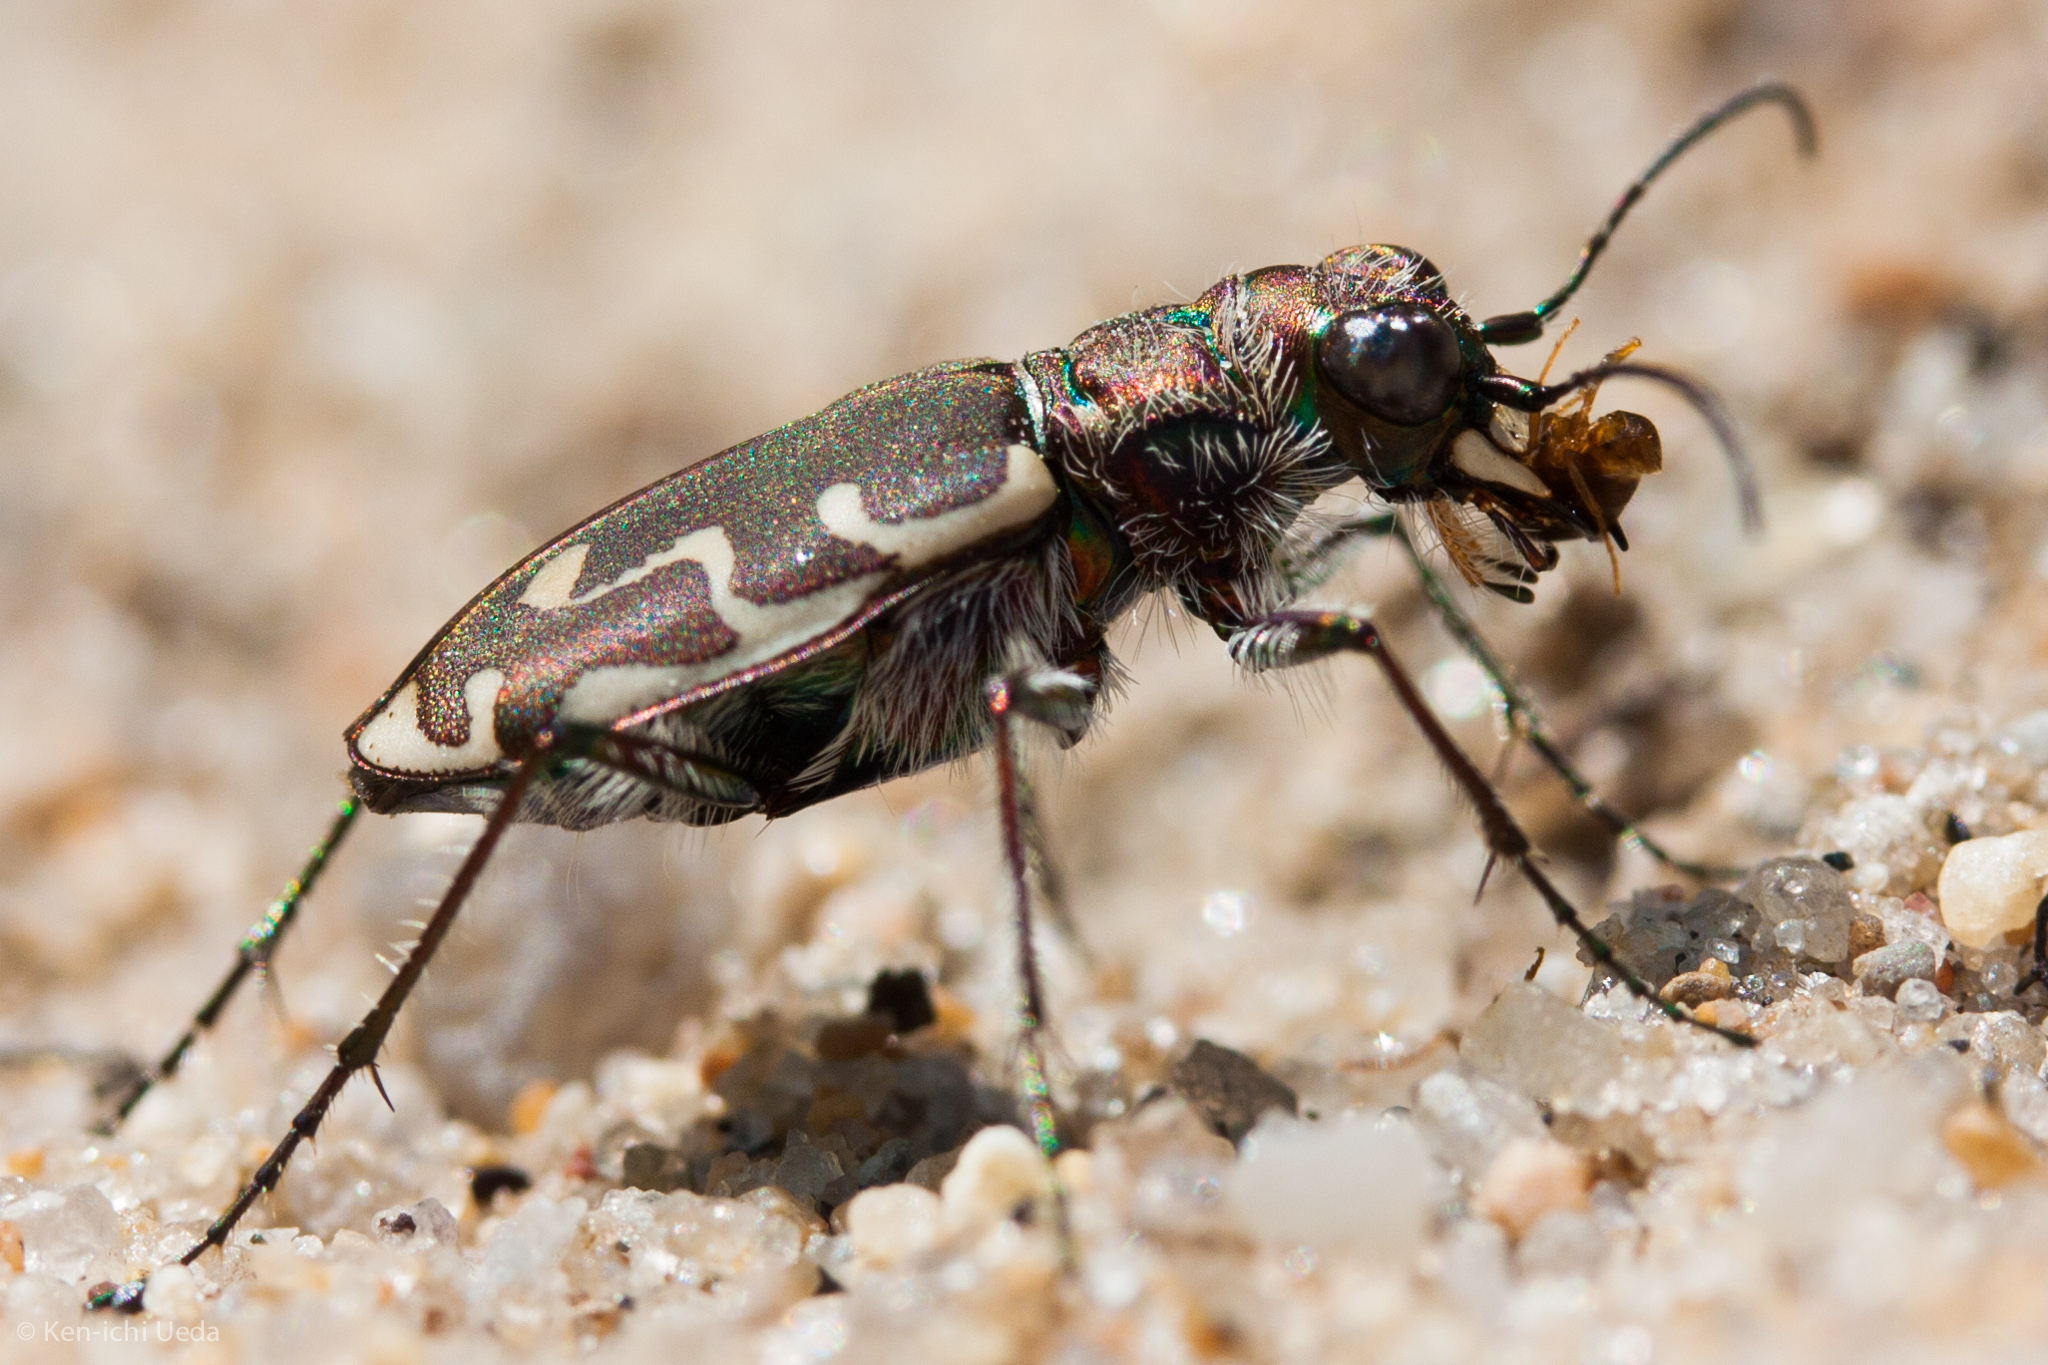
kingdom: Animalia
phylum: Arthropoda
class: Insecta
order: Coleoptera
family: Carabidae
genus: Cicindela
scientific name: Cicindela repanda
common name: Bronzed tiger beetle
